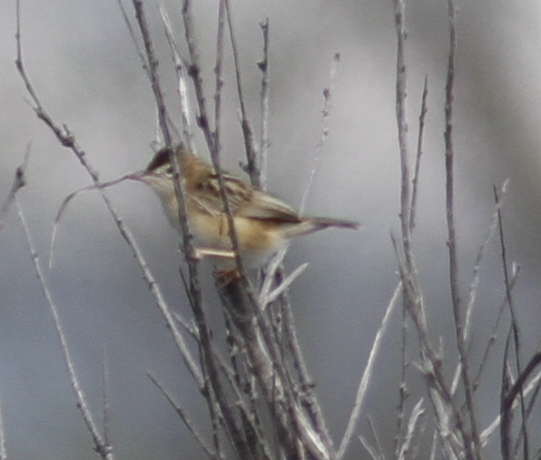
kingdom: Animalia
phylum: Chordata
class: Aves
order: Passeriformes
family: Cisticolidae
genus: Cisticola
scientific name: Cisticola juncidis
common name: Zitting cisticola
